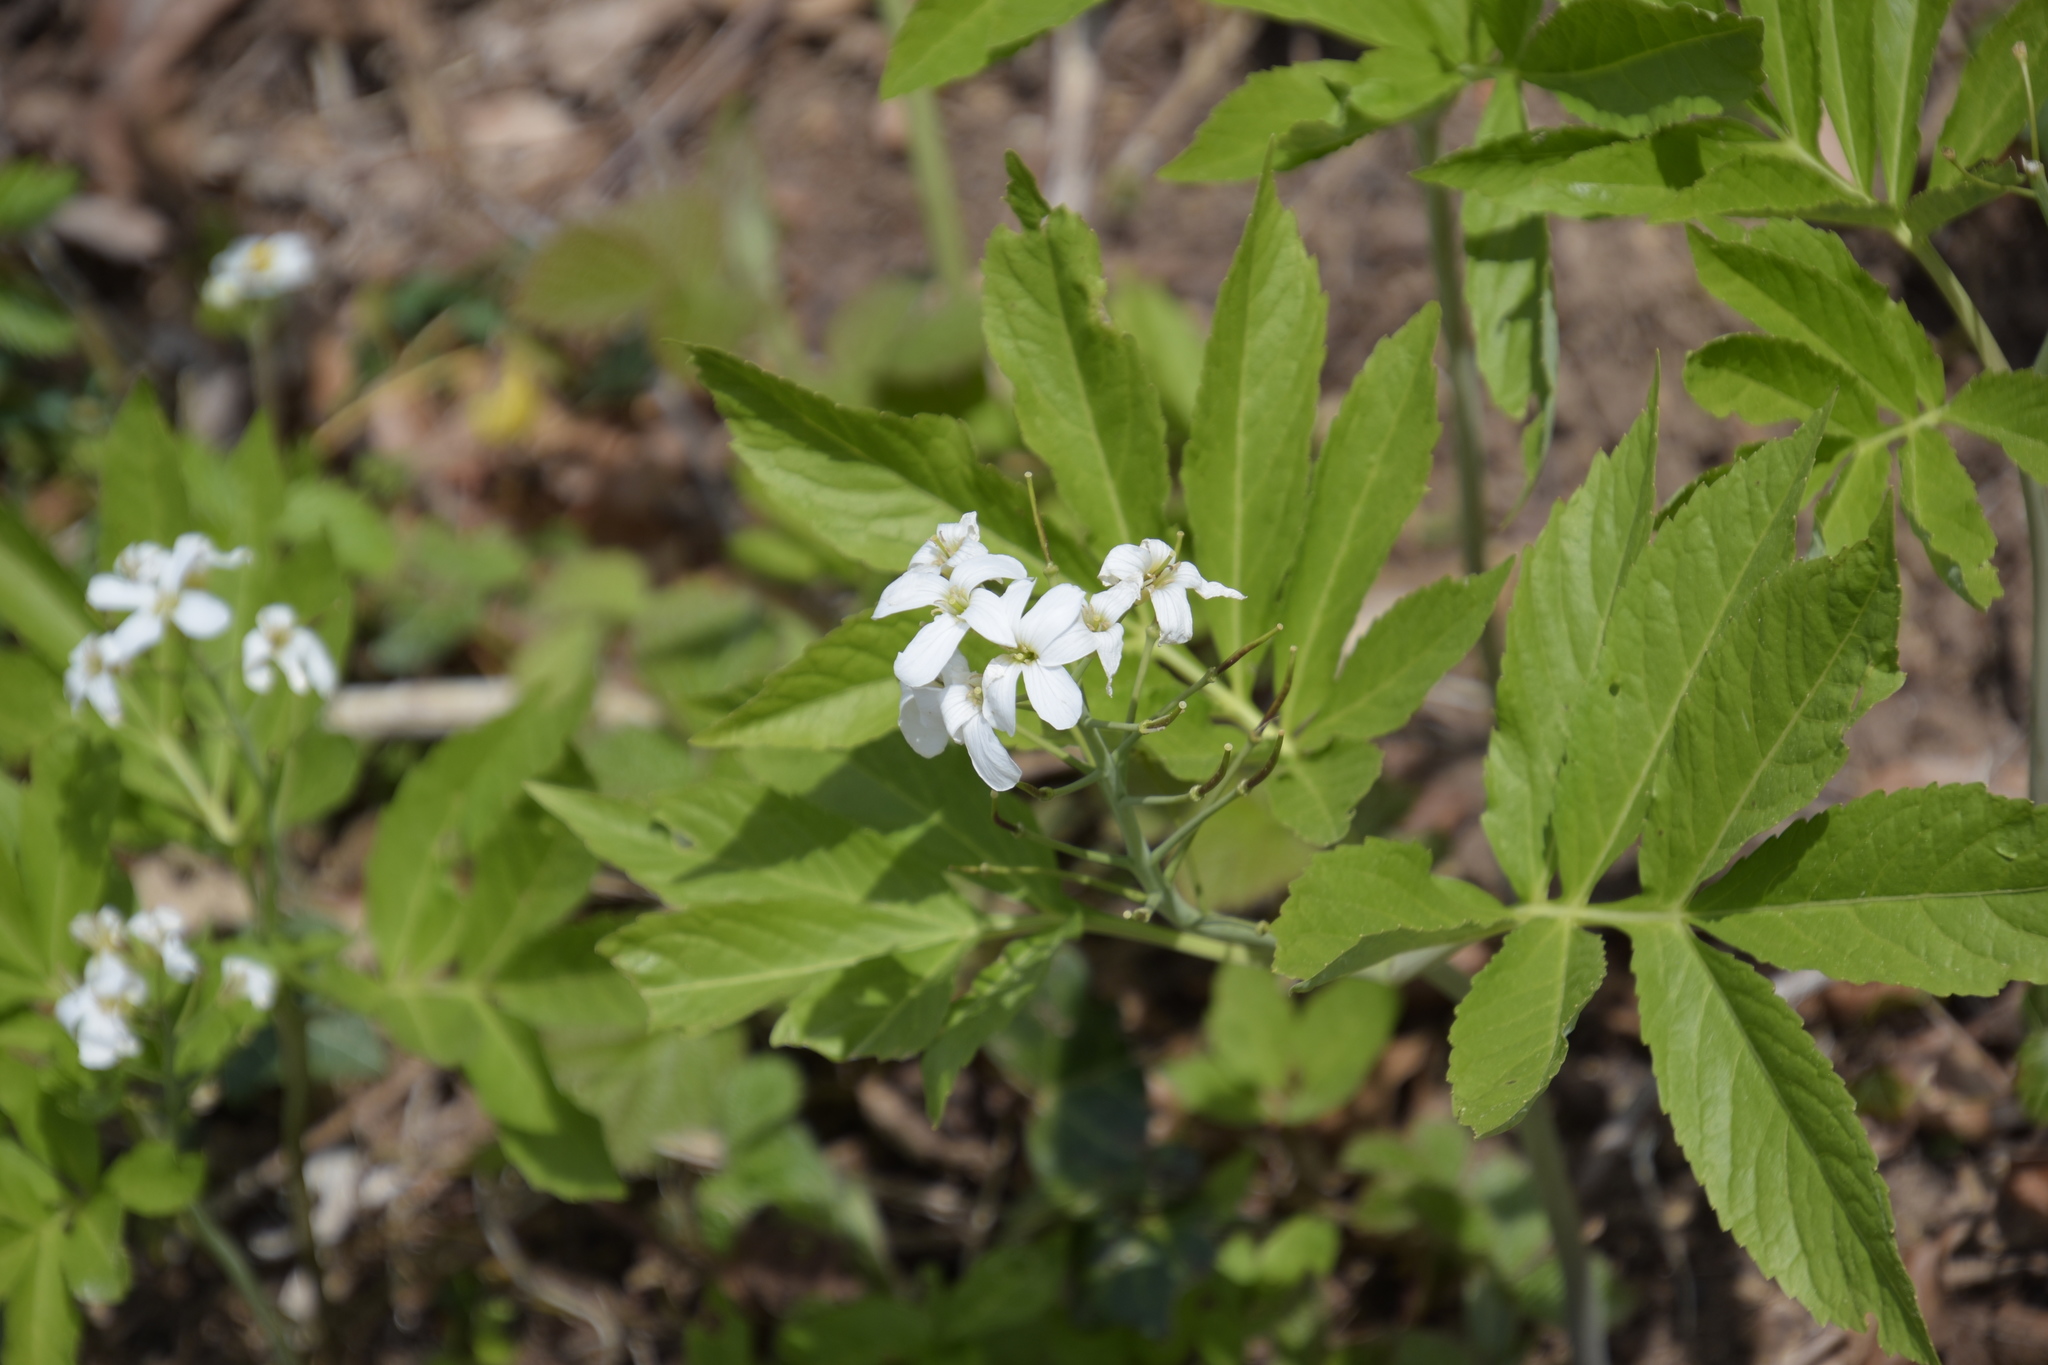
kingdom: Plantae
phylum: Tracheophyta
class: Magnoliopsida
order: Brassicales
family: Brassicaceae
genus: Cardamine
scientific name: Cardamine heptaphylla
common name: Pinnate coralroot
